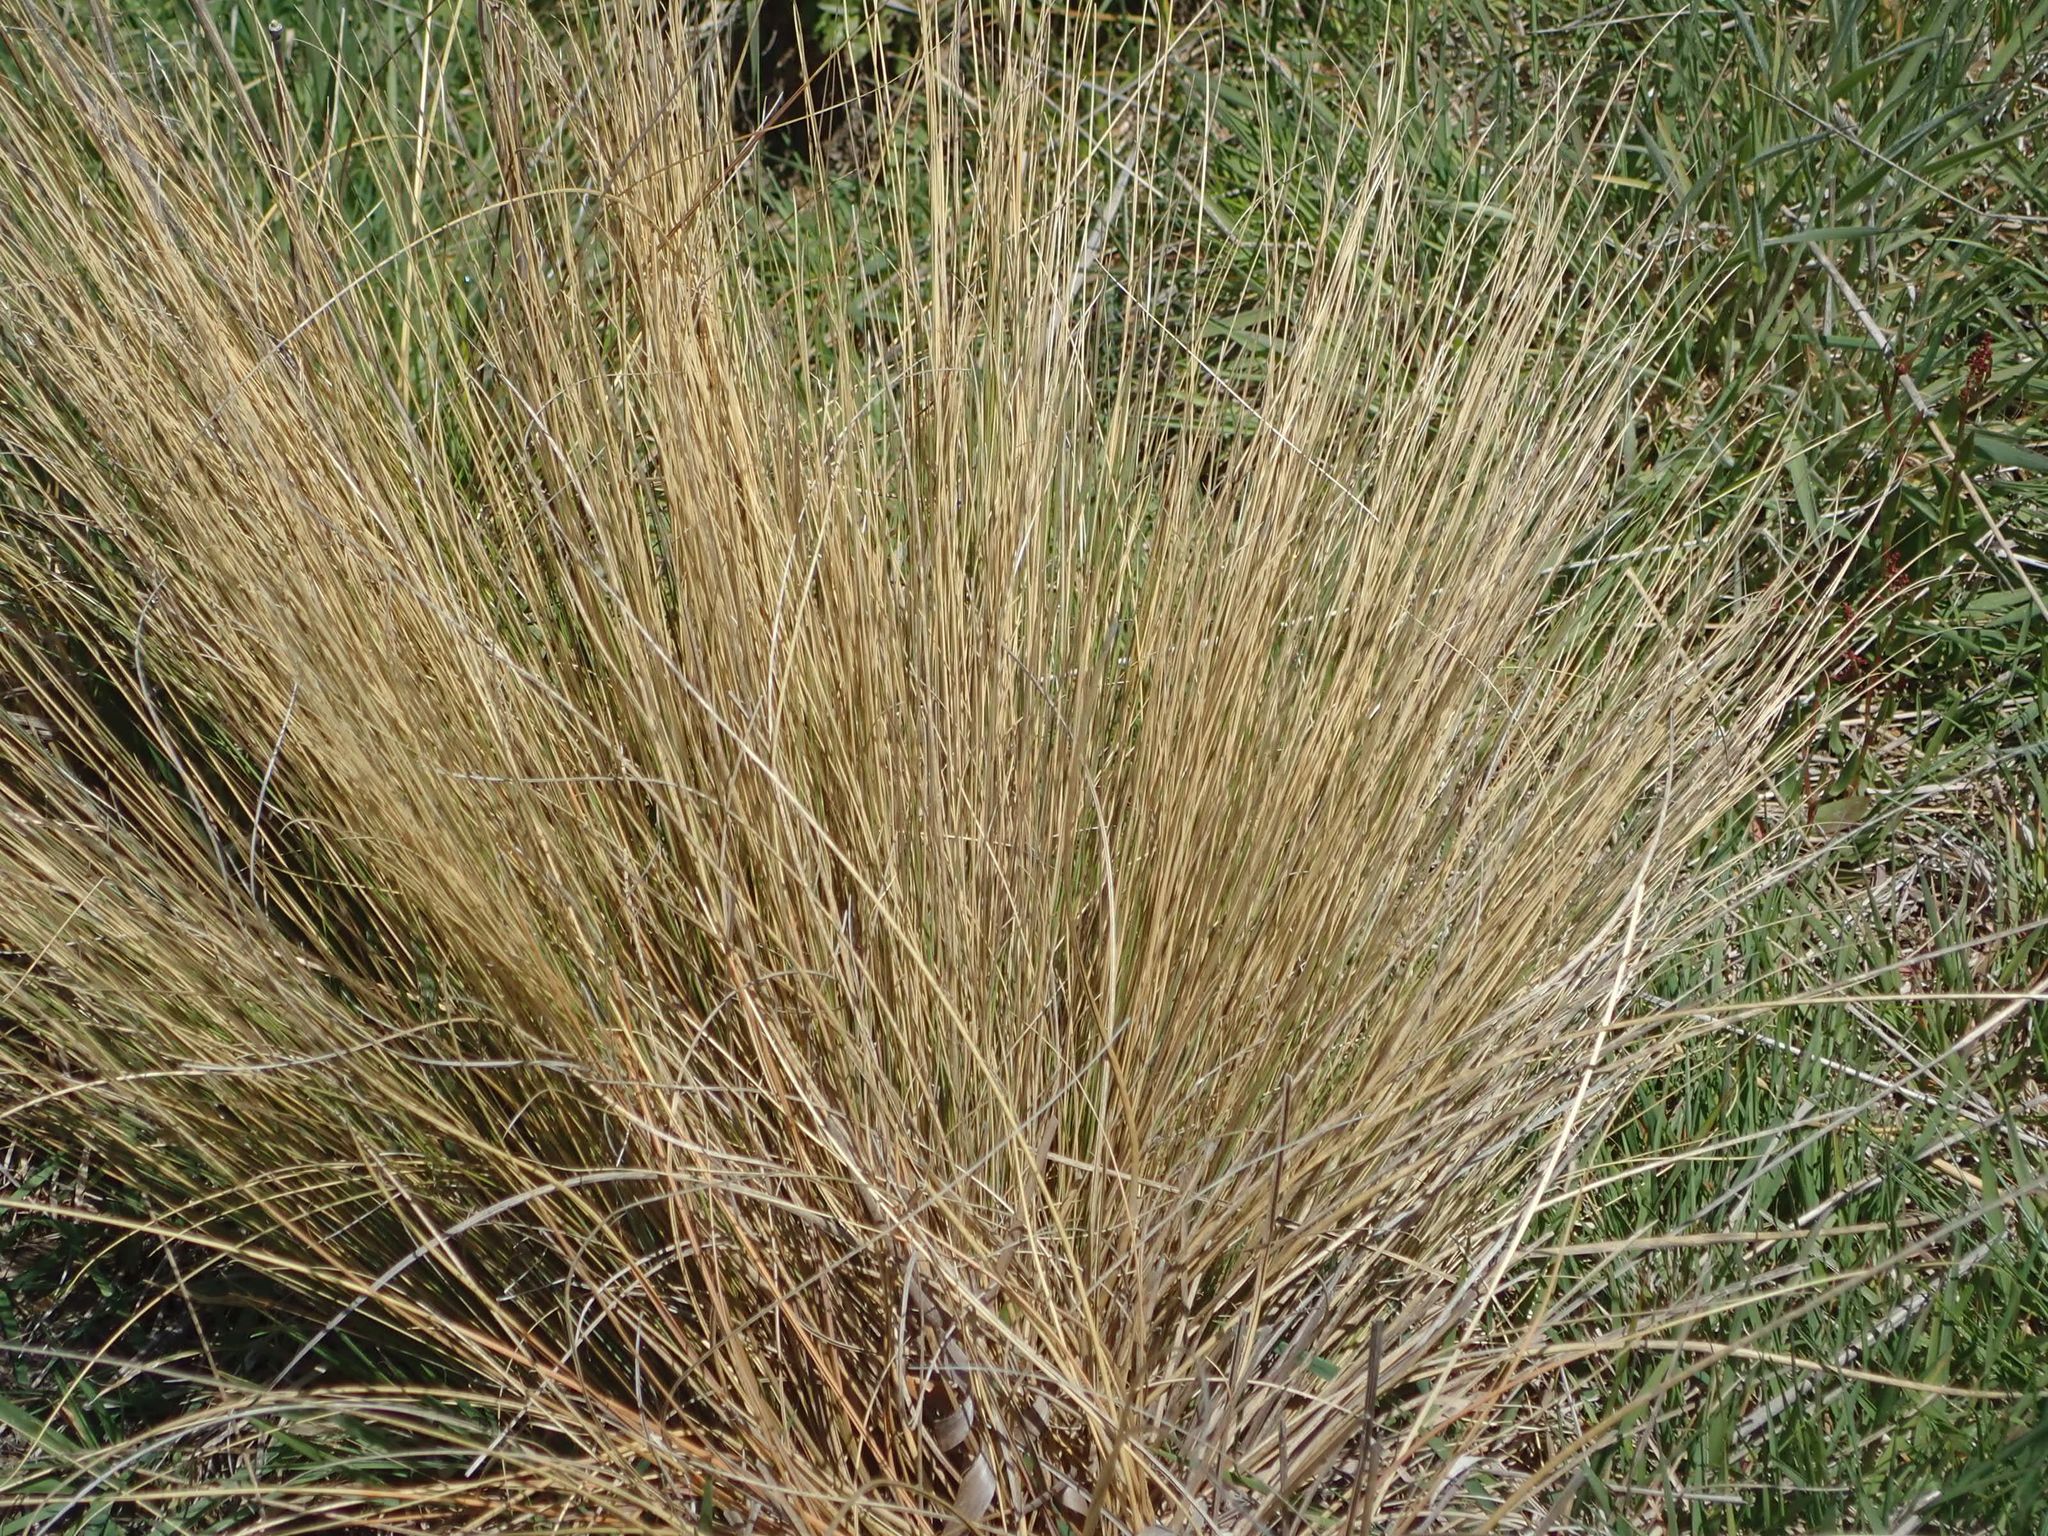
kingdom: Plantae
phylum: Tracheophyta
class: Liliopsida
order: Poales
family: Poaceae
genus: Festuca
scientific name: Festuca novae-zelandiae
